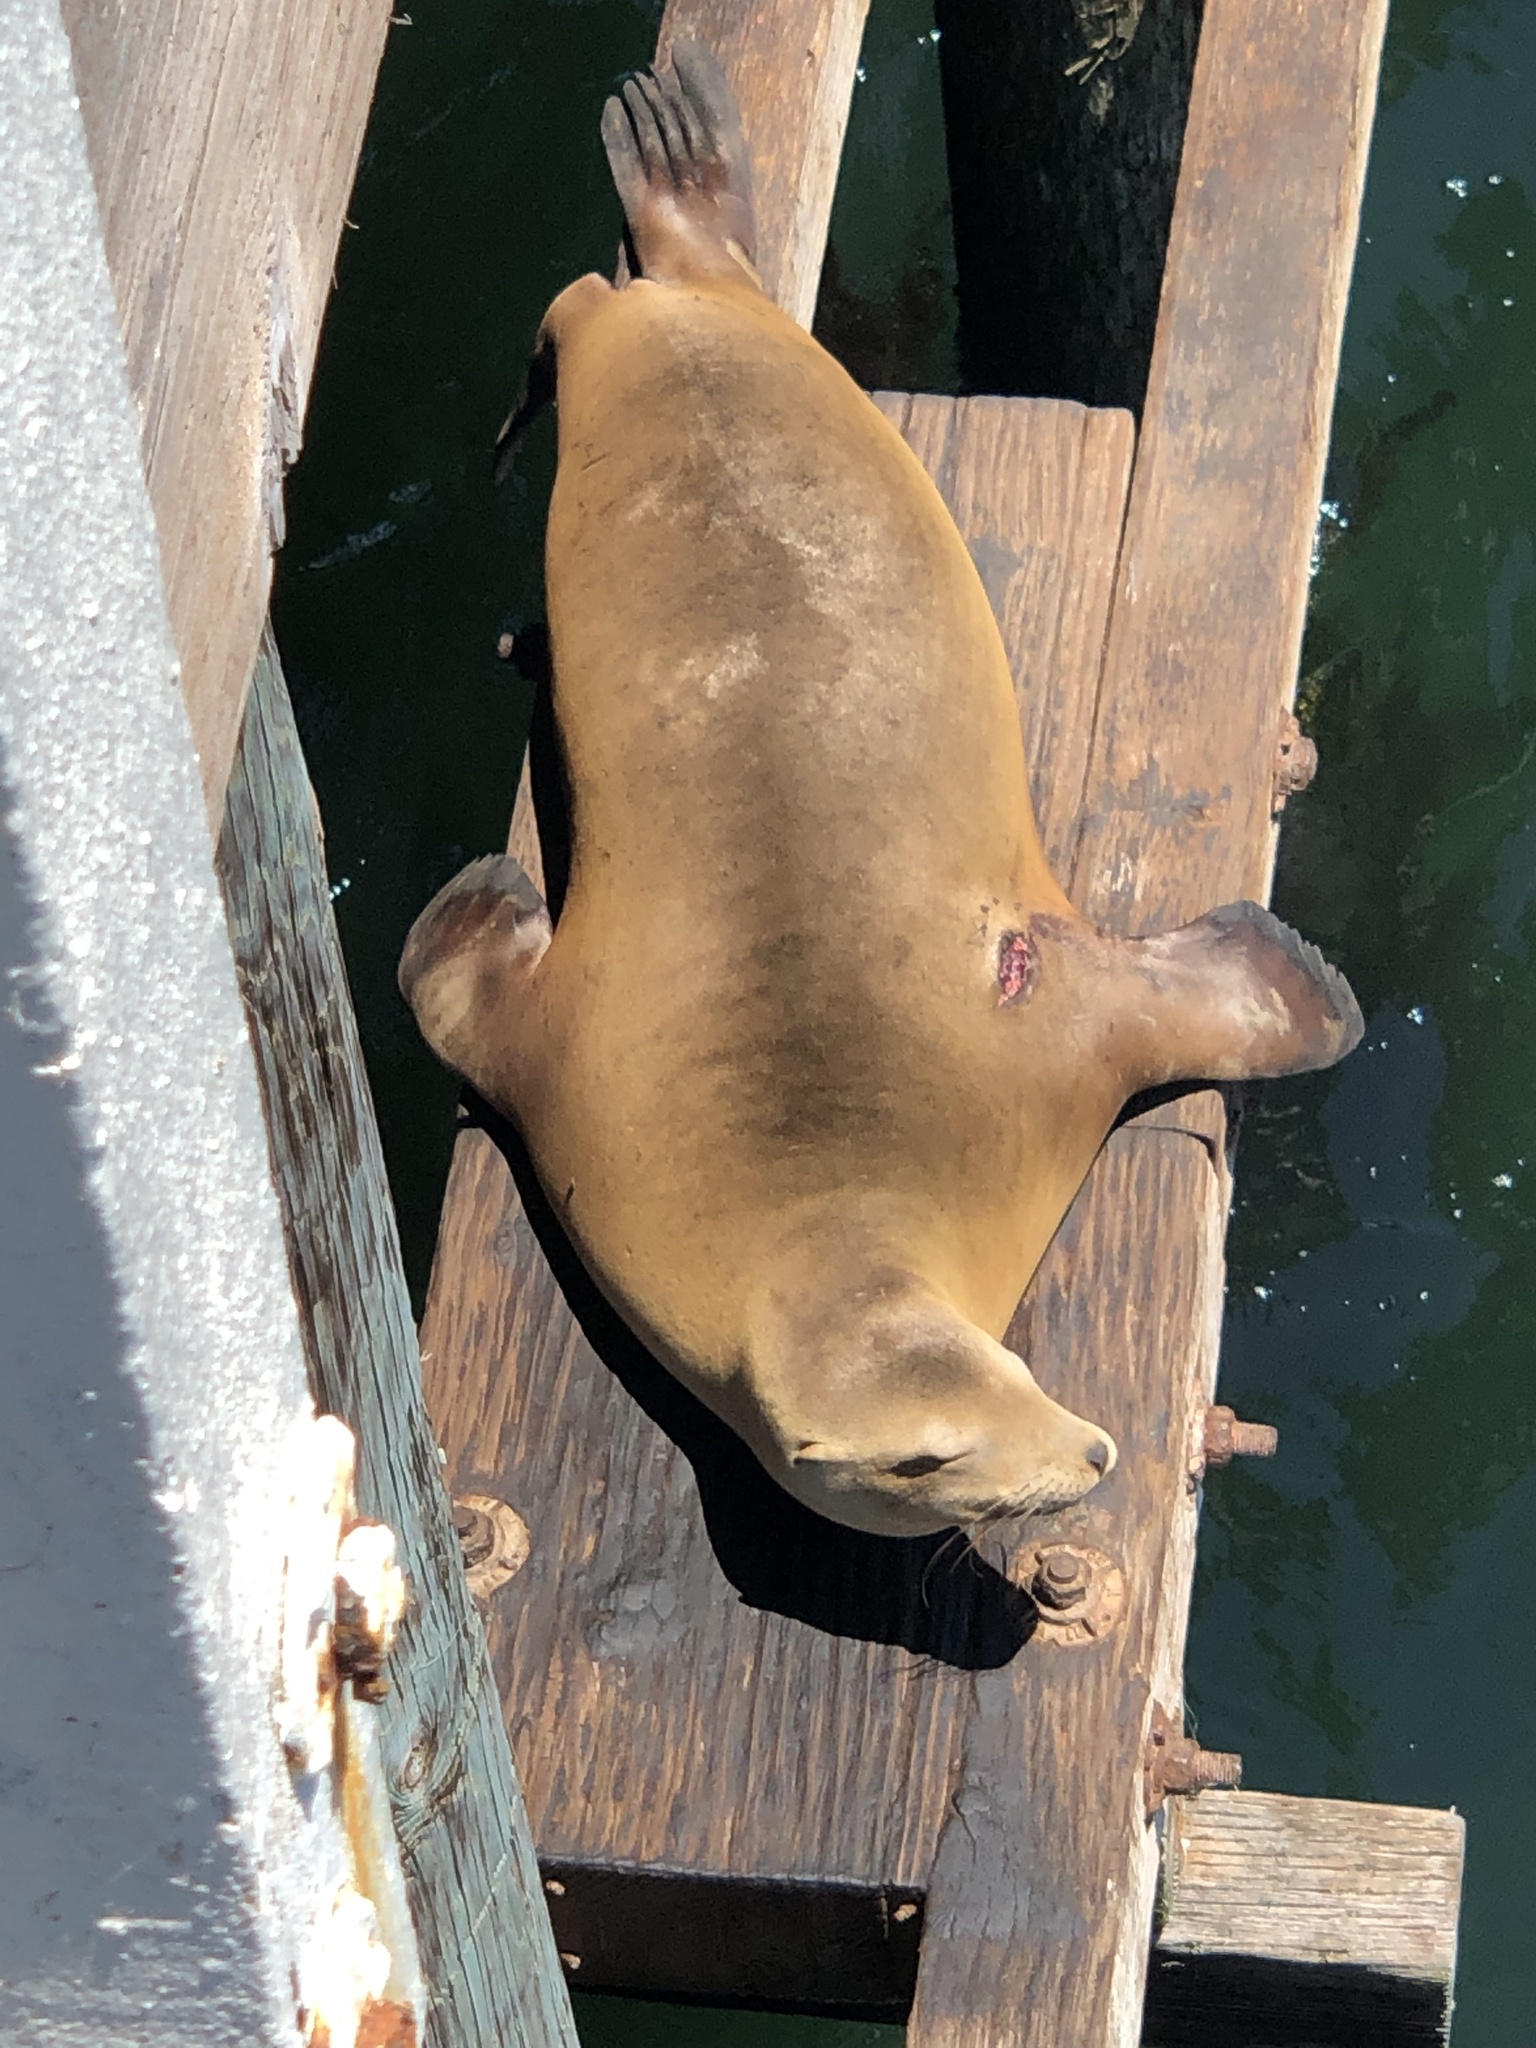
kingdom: Animalia
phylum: Chordata
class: Mammalia
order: Carnivora
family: Otariidae
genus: Zalophus
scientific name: Zalophus californianus
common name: California sea lion
